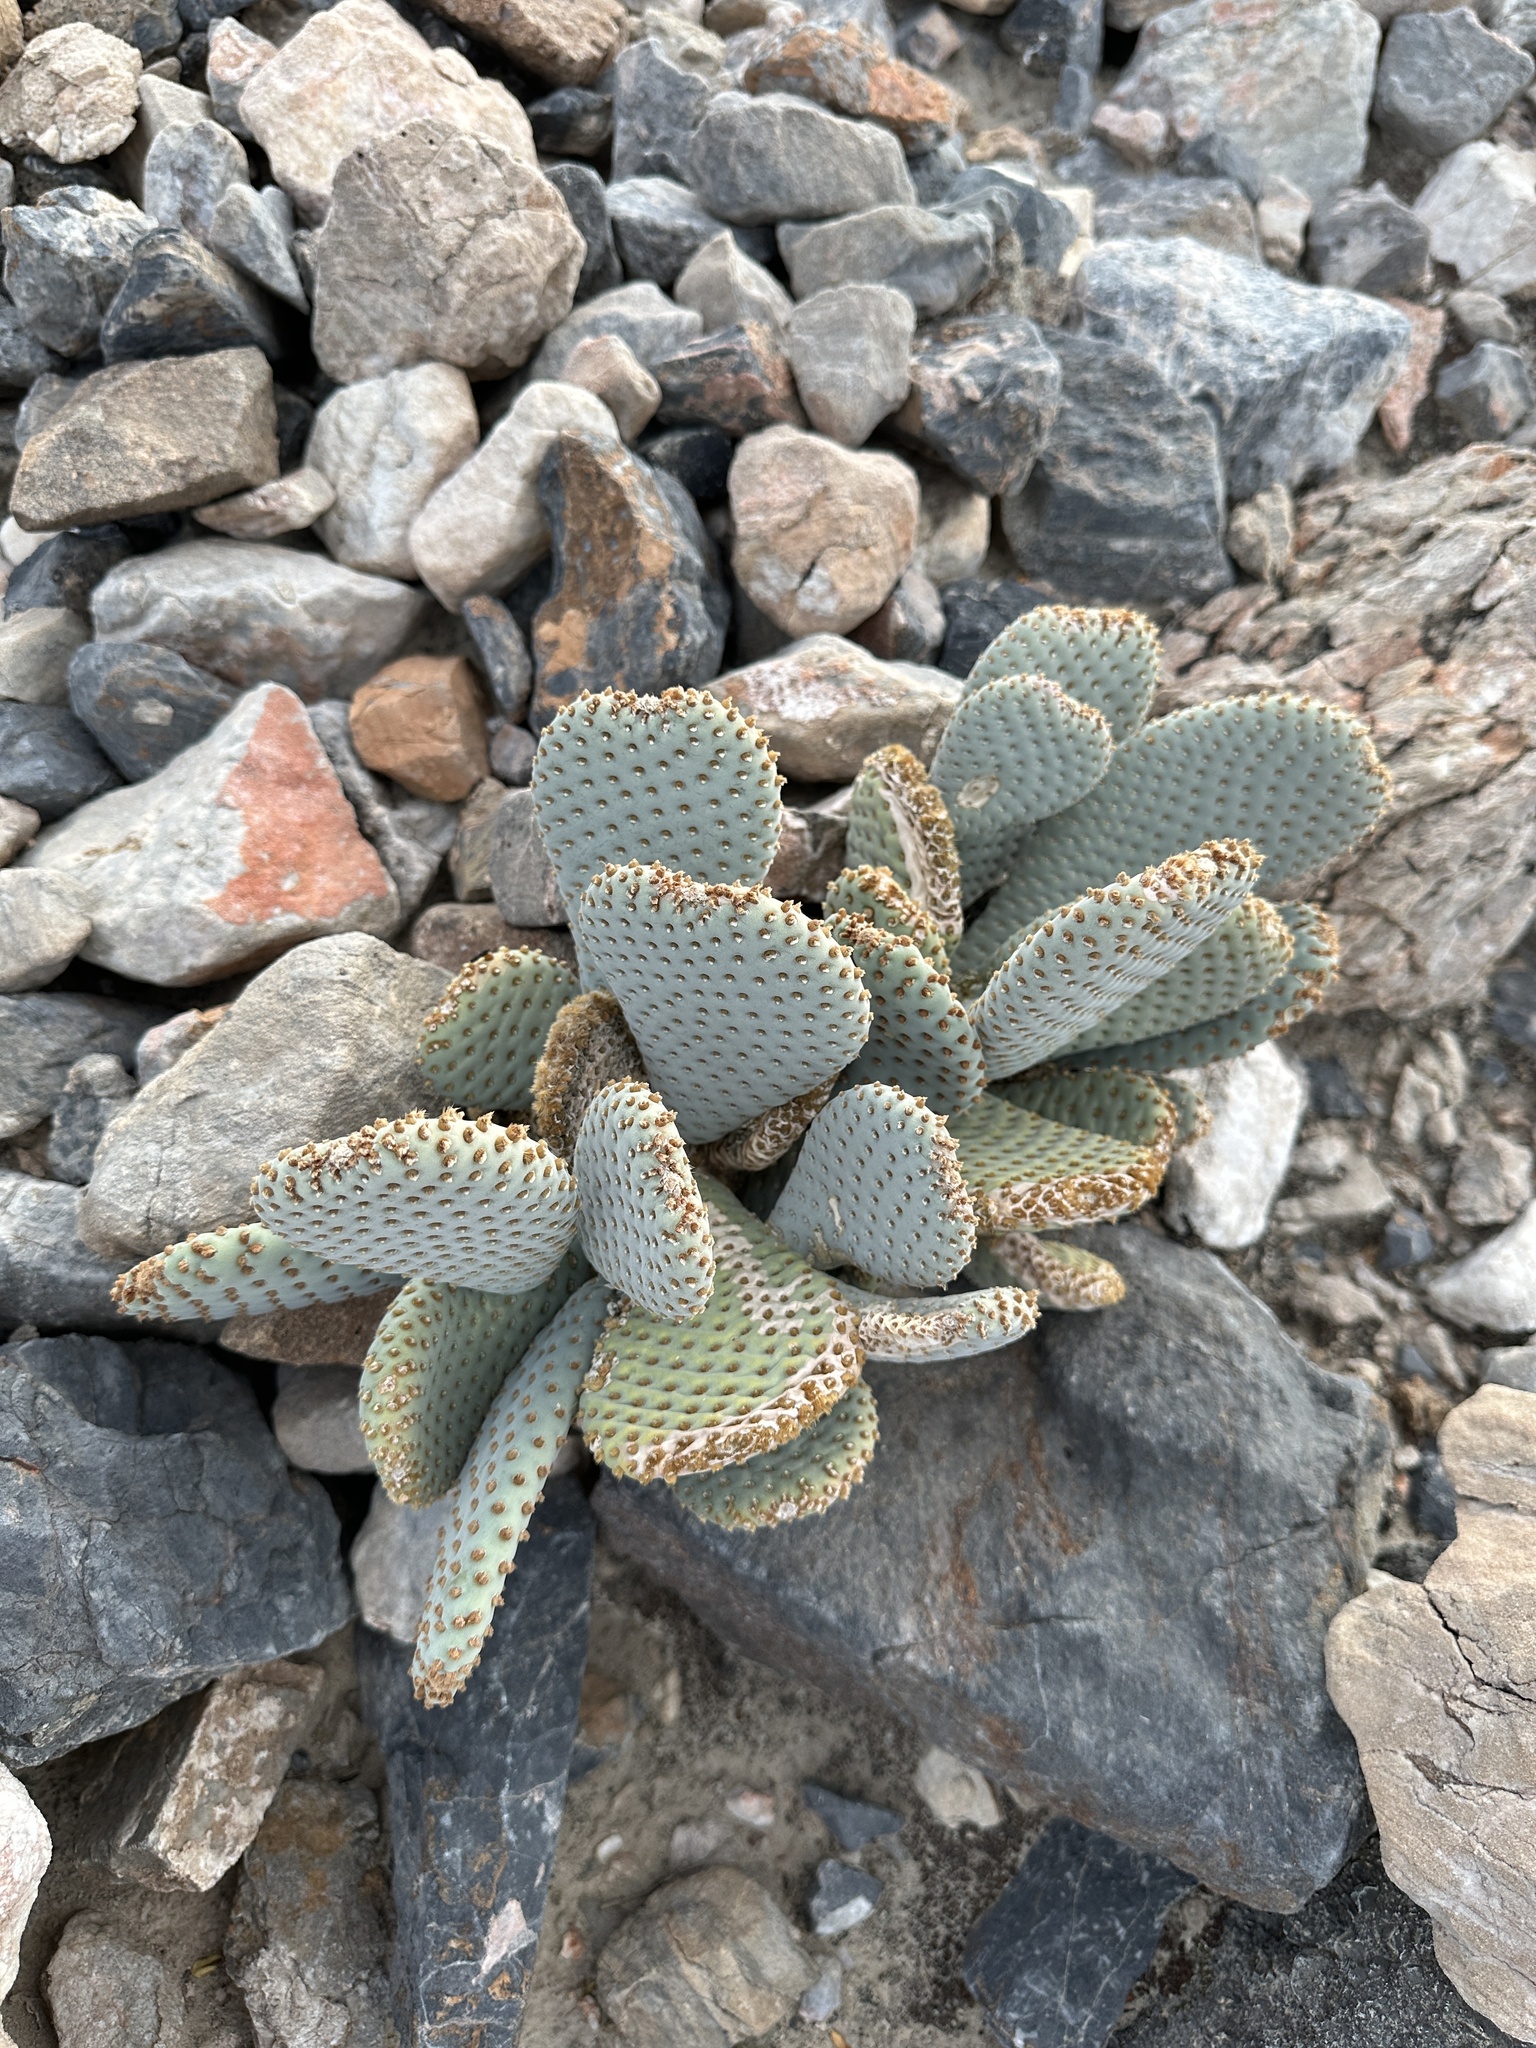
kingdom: Plantae
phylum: Tracheophyta
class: Magnoliopsida
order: Caryophyllales
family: Cactaceae
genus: Opuntia
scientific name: Opuntia basilaris
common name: Beavertail prickly-pear
